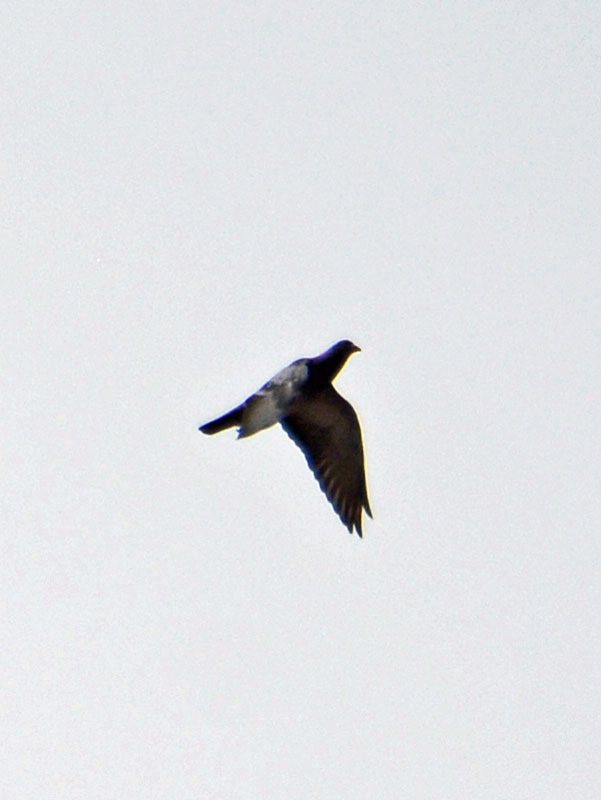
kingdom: Animalia
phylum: Chordata
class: Aves
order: Columbiformes
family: Columbidae
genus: Columba
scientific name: Columba livia
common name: Rock pigeon
